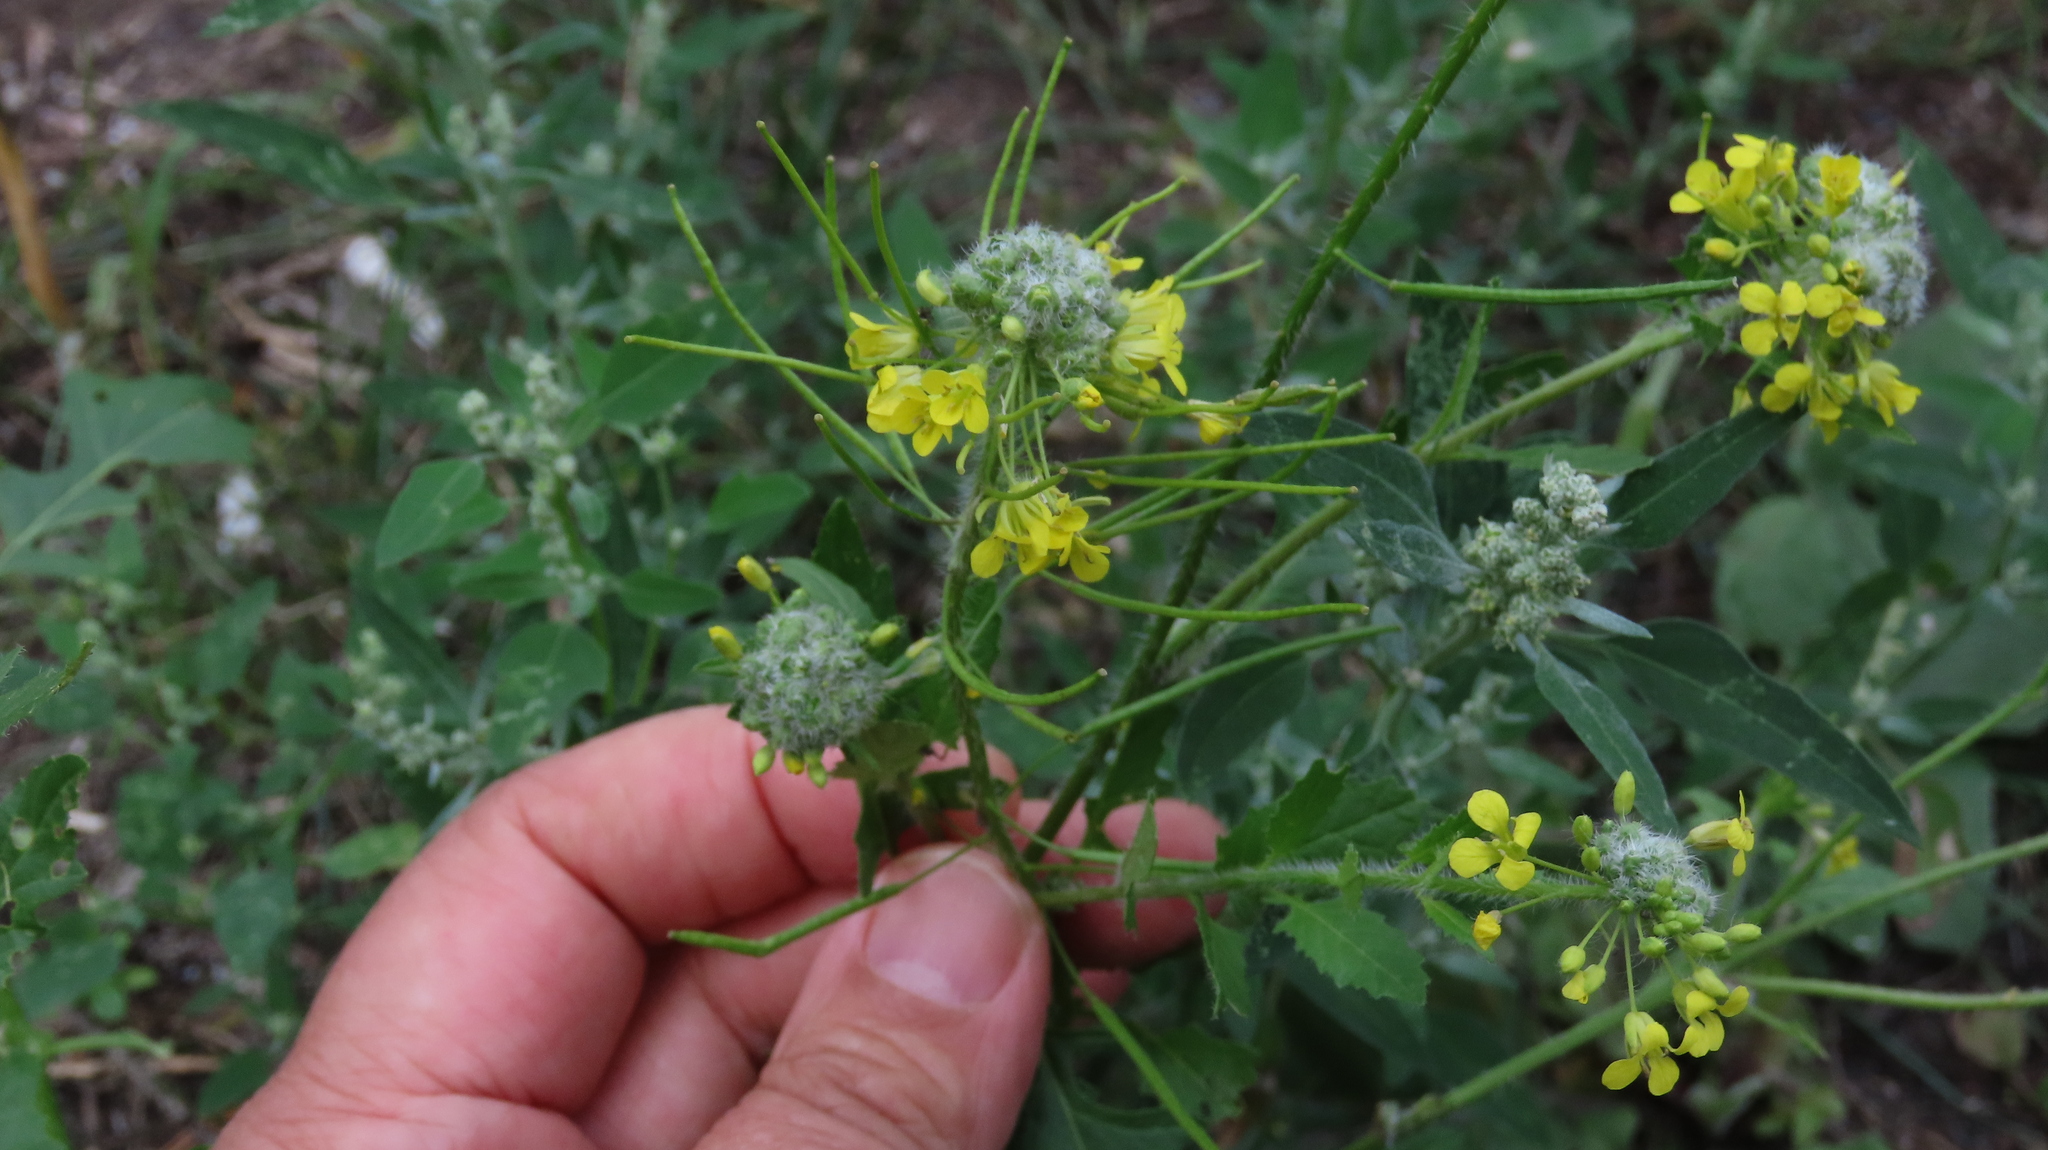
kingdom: Plantae
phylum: Tracheophyta
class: Magnoliopsida
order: Brassicales
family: Brassicaceae
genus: Sisymbrium
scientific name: Sisymbrium loeselii
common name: False london-rocket
